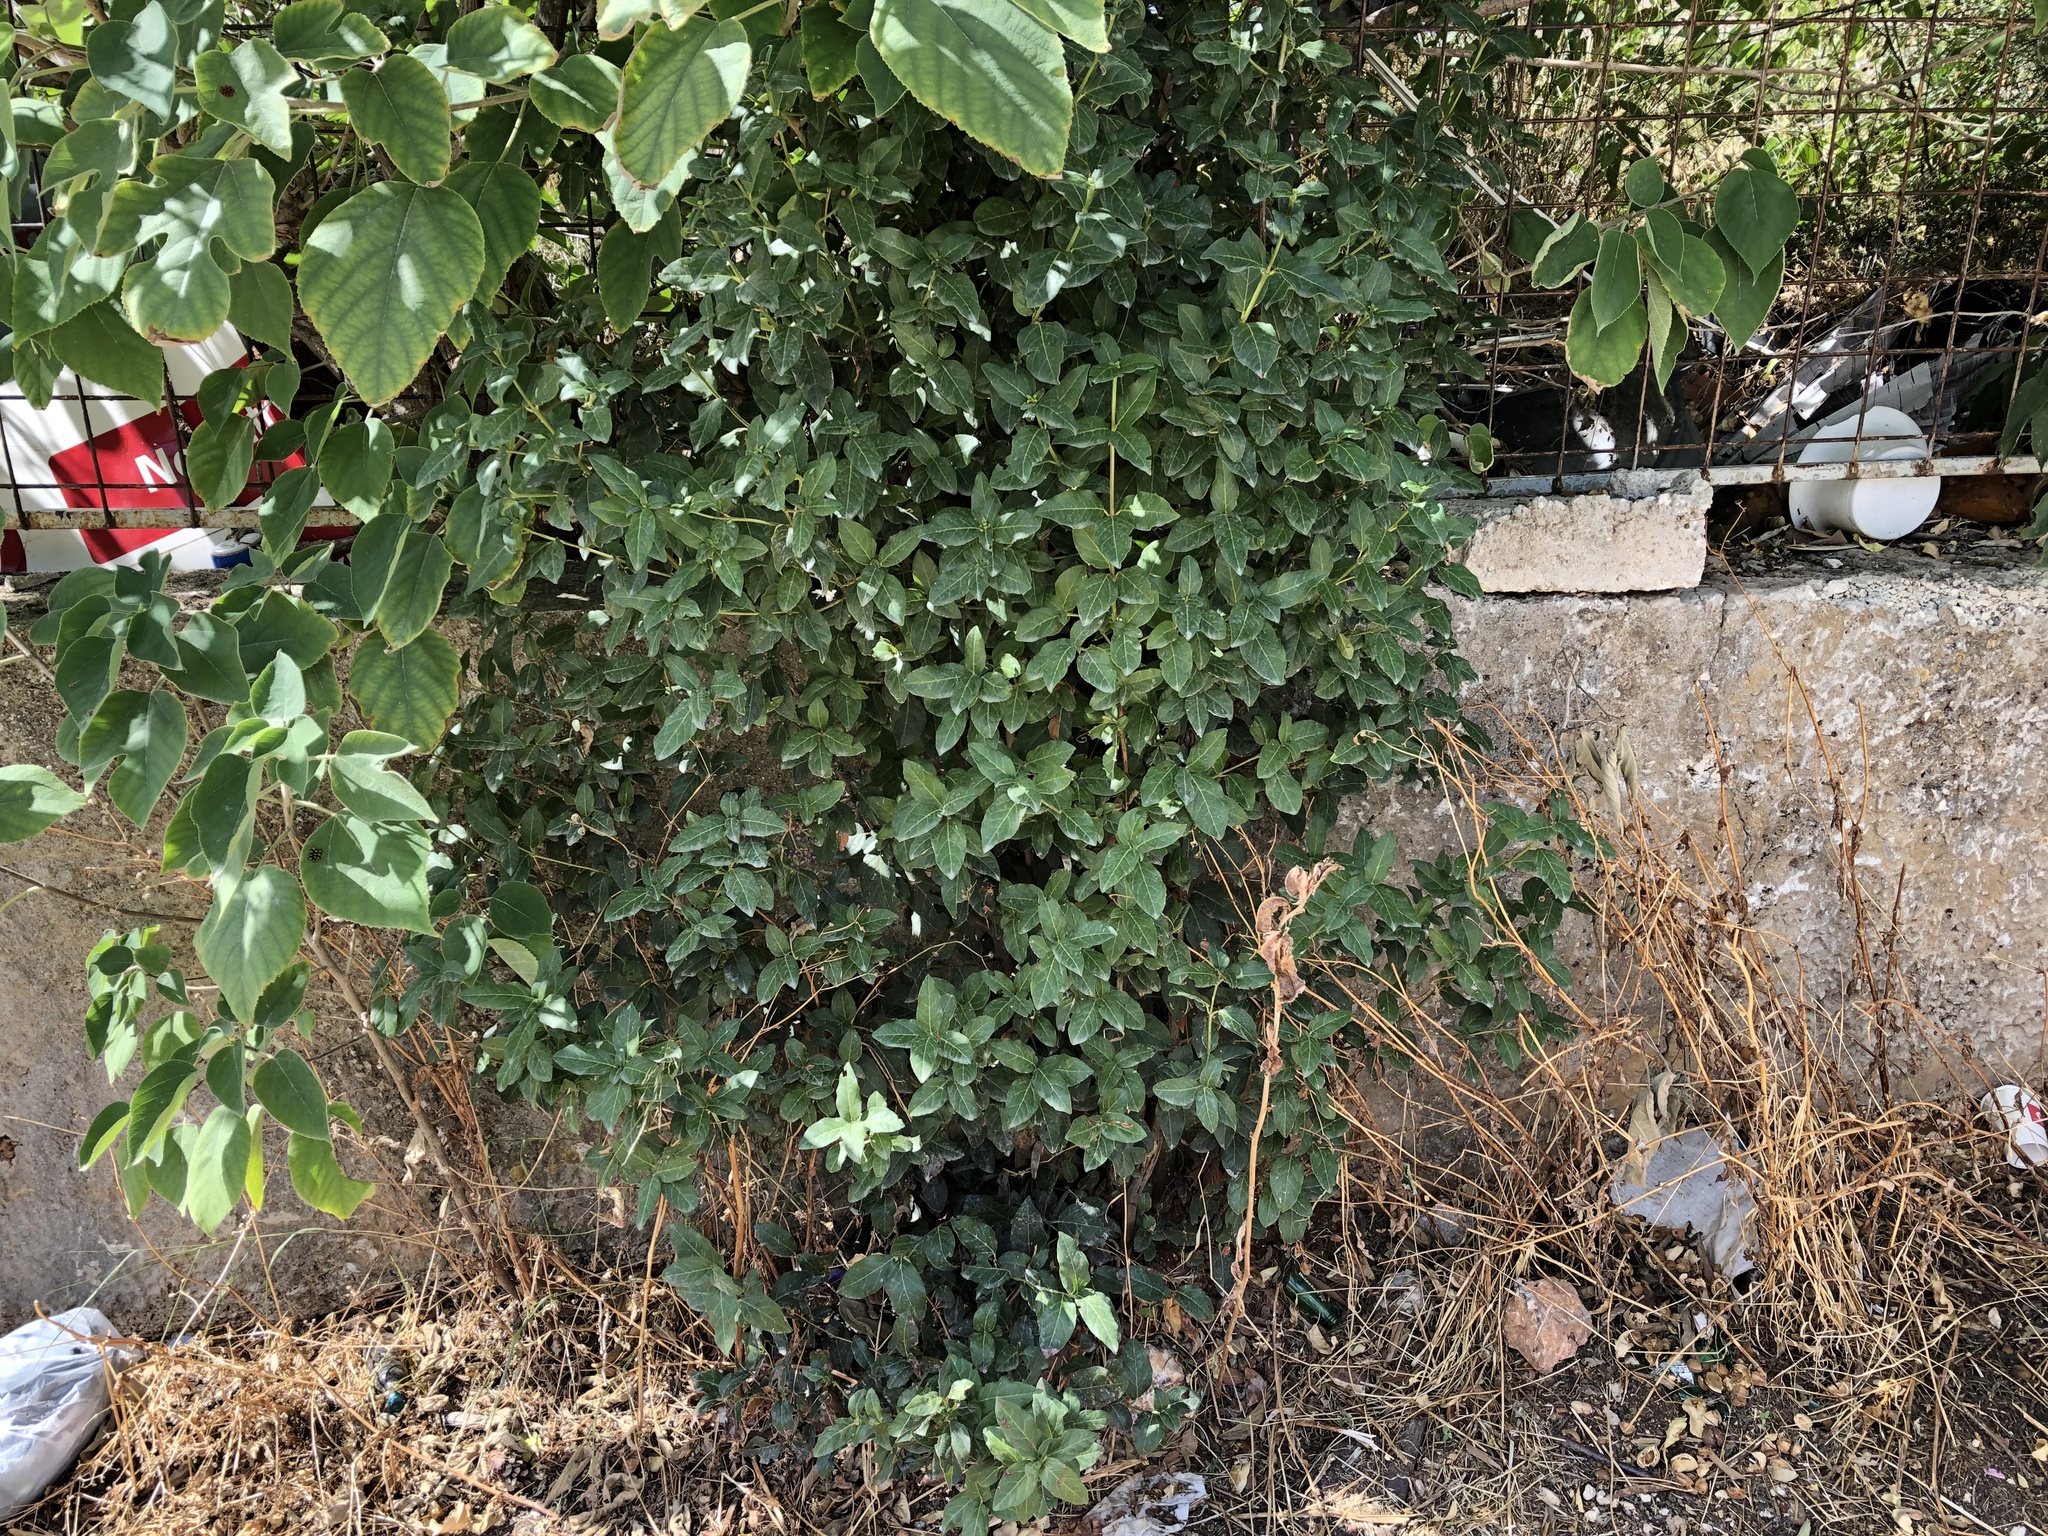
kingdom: Plantae
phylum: Tracheophyta
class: Magnoliopsida
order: Dipsacales
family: Viburnaceae
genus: Viburnum
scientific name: Viburnum tinus
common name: Laurustinus
